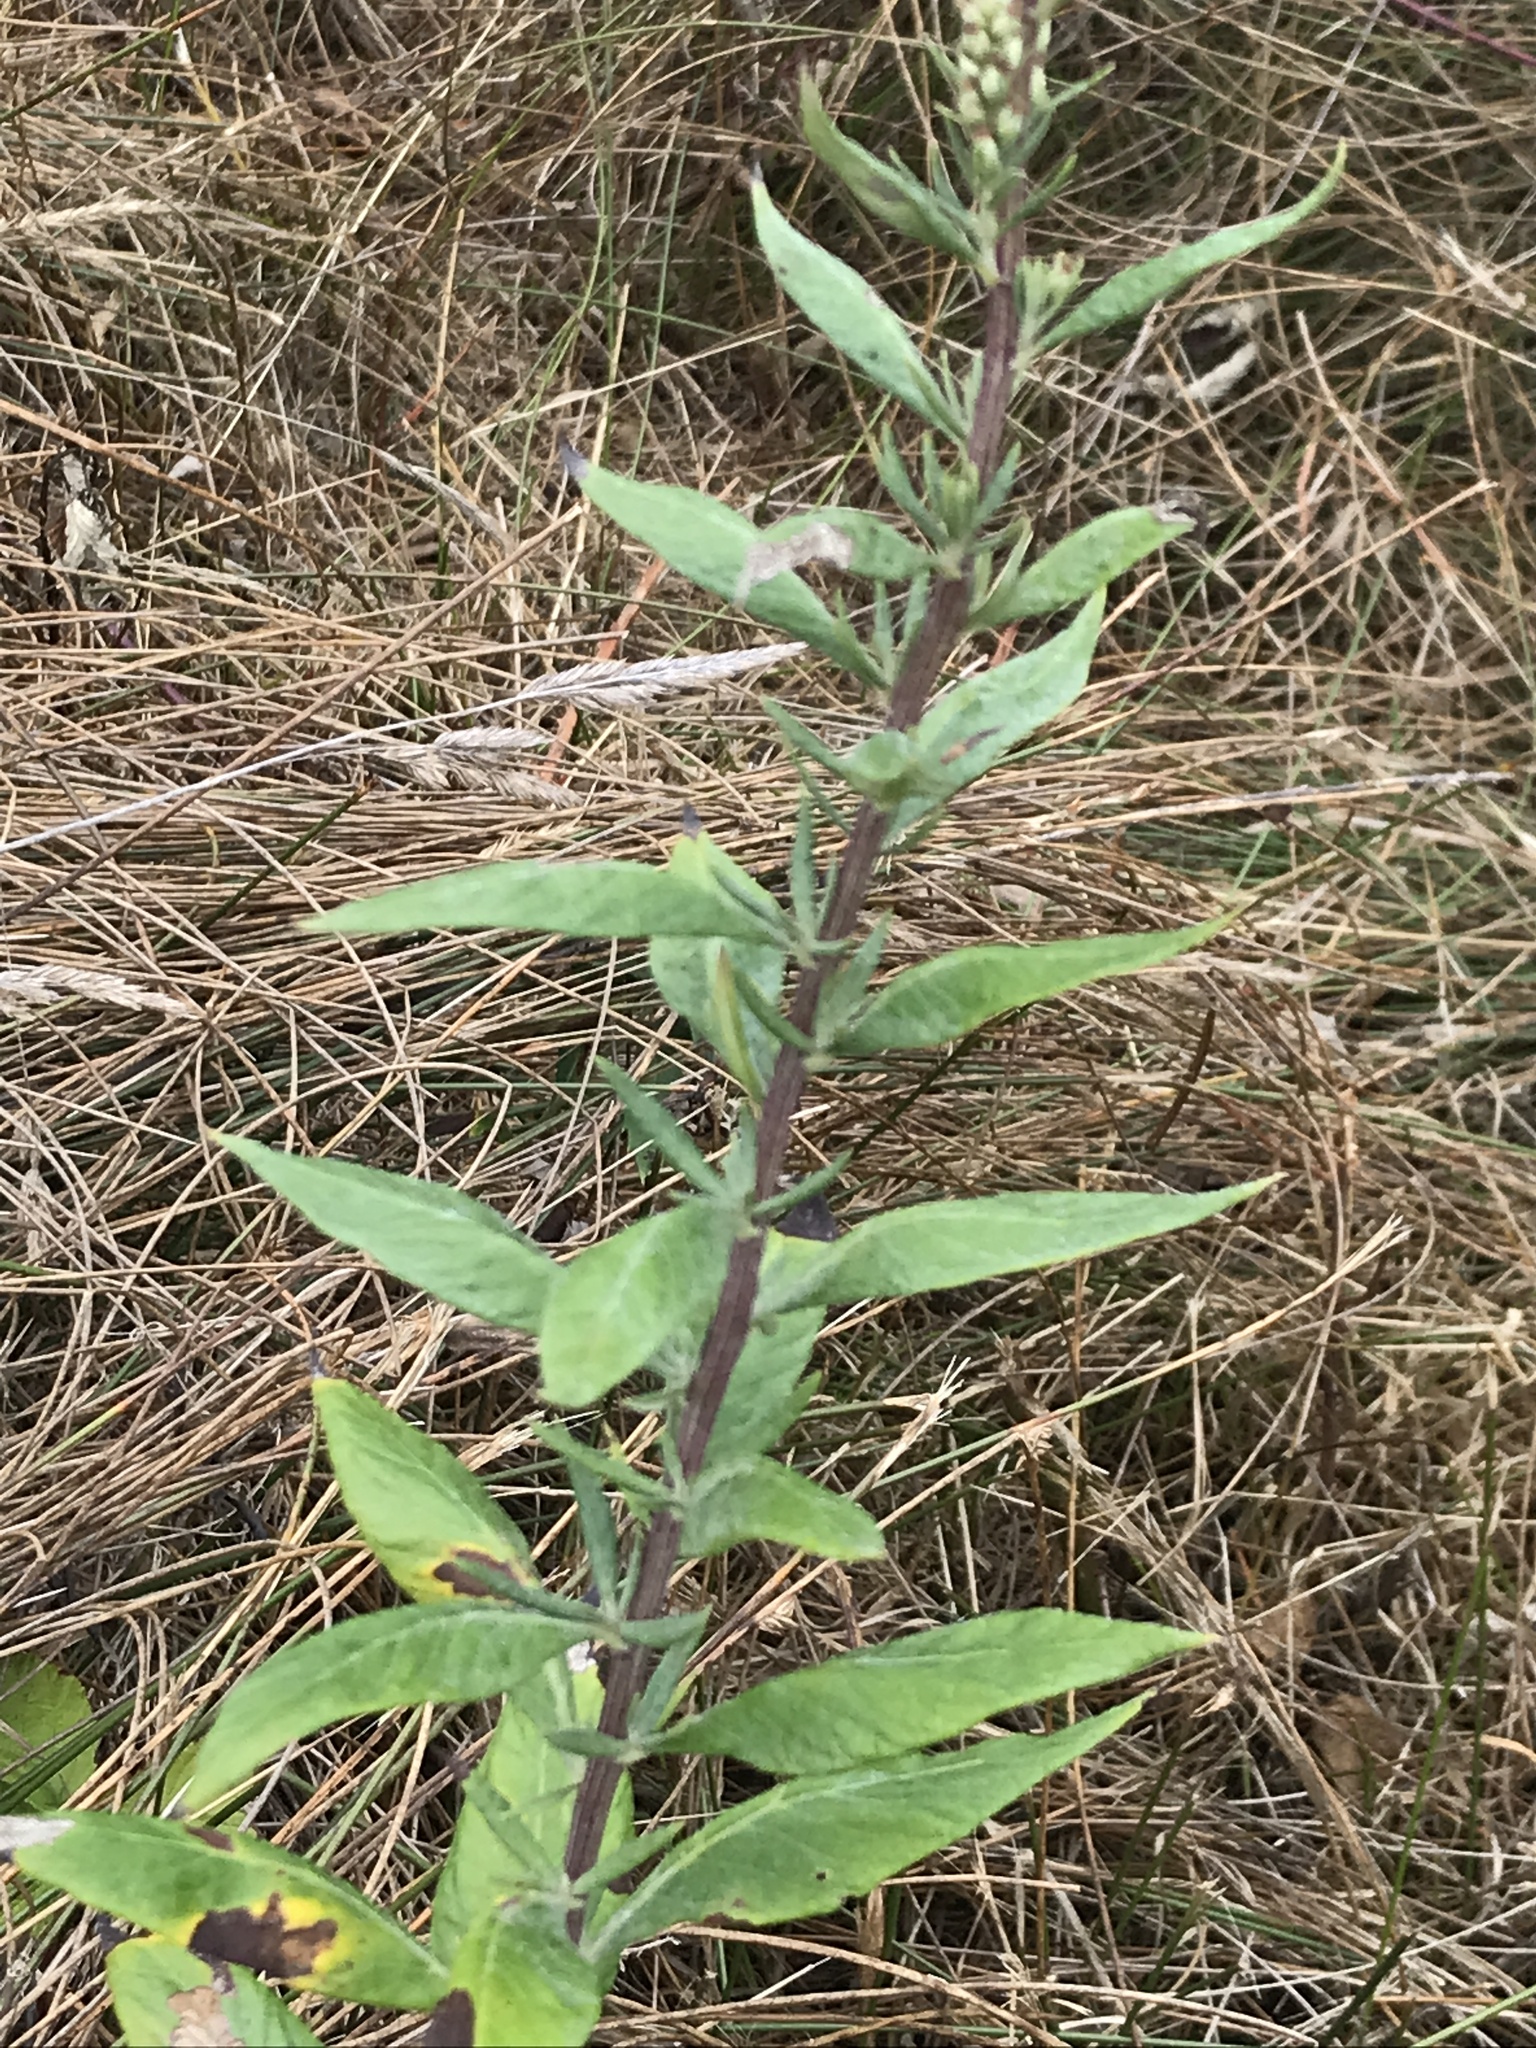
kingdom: Plantae
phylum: Tracheophyta
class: Magnoliopsida
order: Asterales
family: Asteraceae
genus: Artemisia
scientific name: Artemisia suksdorfii
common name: Suksdorf sagewort
